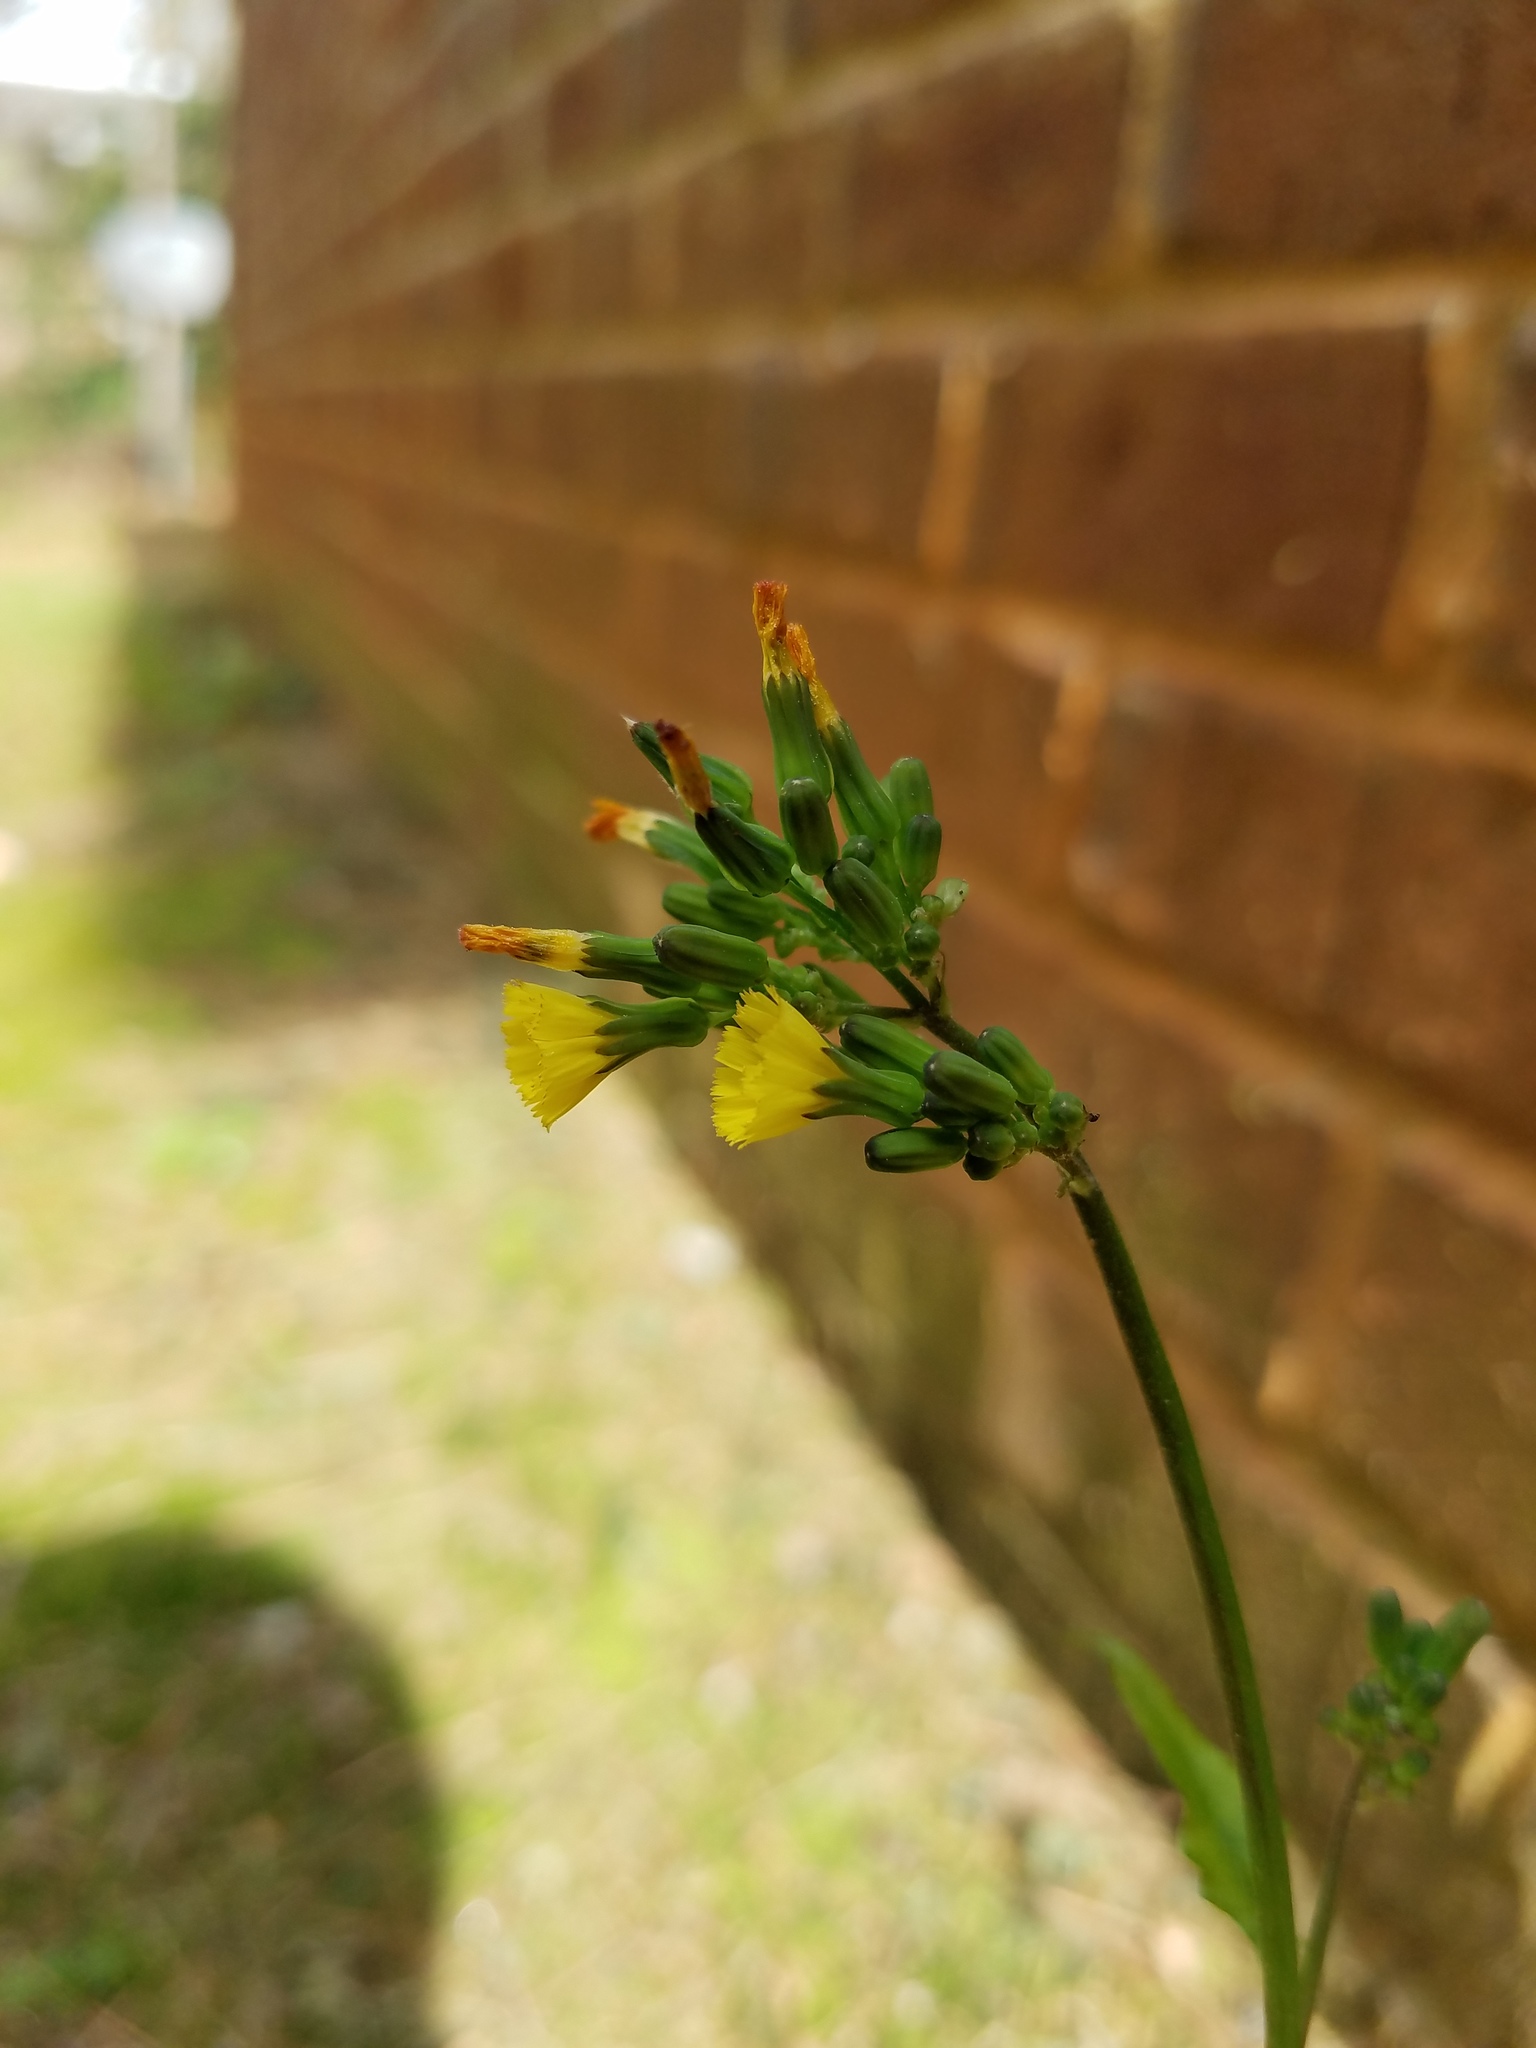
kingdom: Plantae
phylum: Tracheophyta
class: Magnoliopsida
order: Asterales
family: Asteraceae
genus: Youngia
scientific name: Youngia japonica
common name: Oriental false hawksbeard
